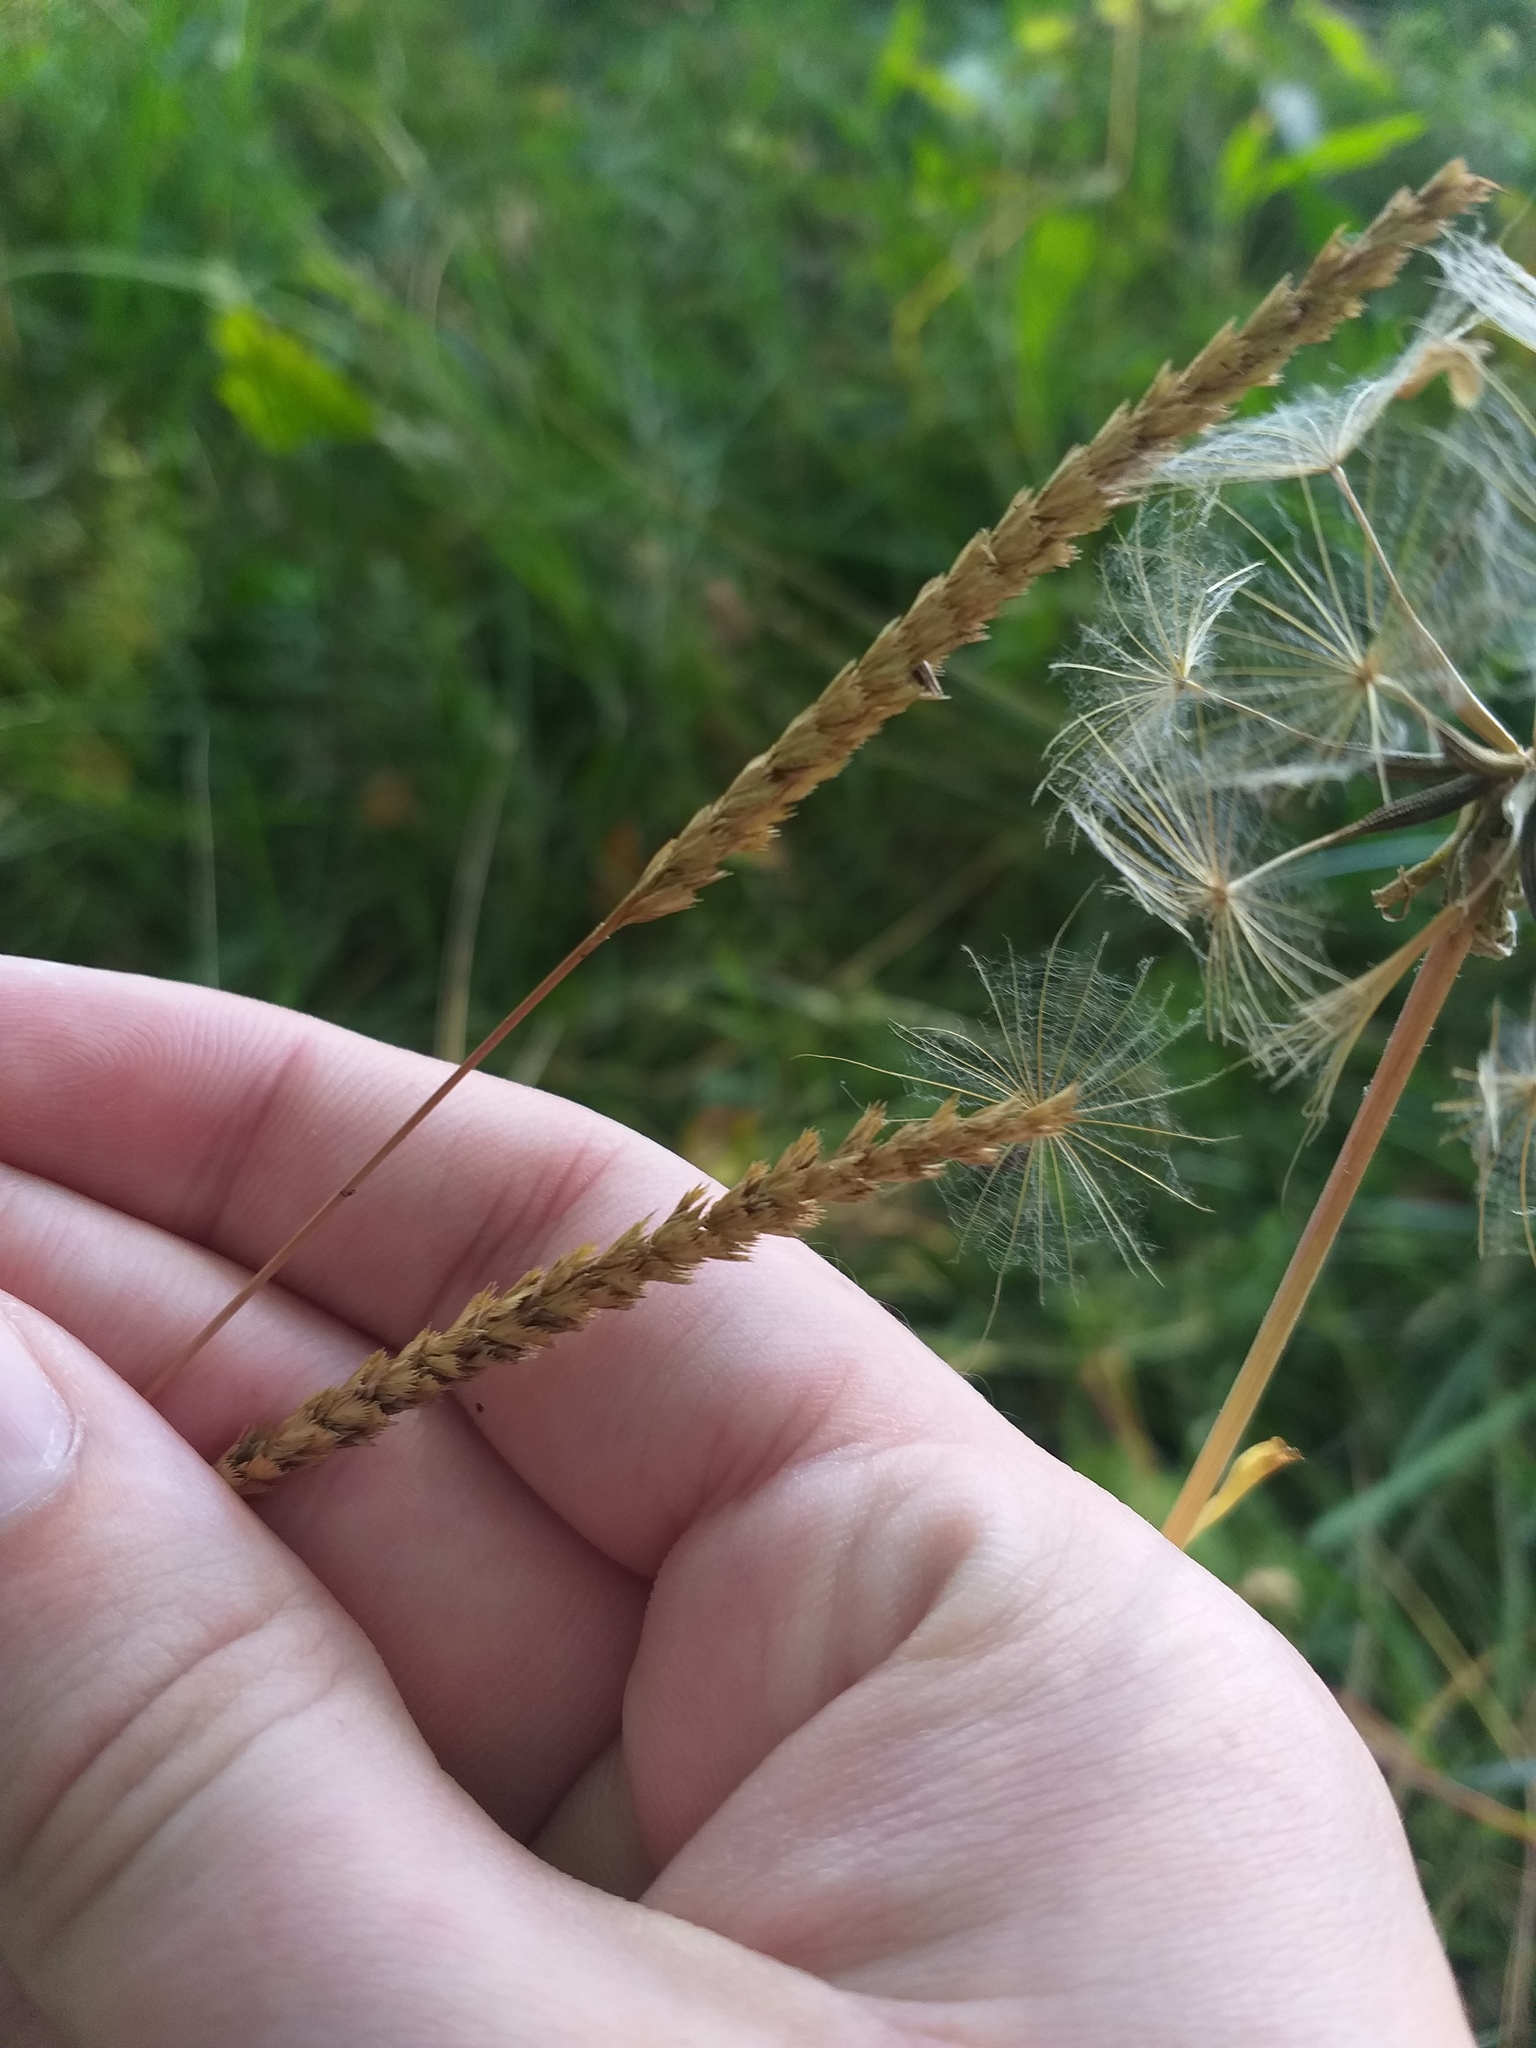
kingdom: Plantae
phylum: Tracheophyta
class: Liliopsida
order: Poales
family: Poaceae
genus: Cynosurus
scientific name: Cynosurus cristatus
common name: Crested dog's-tail
